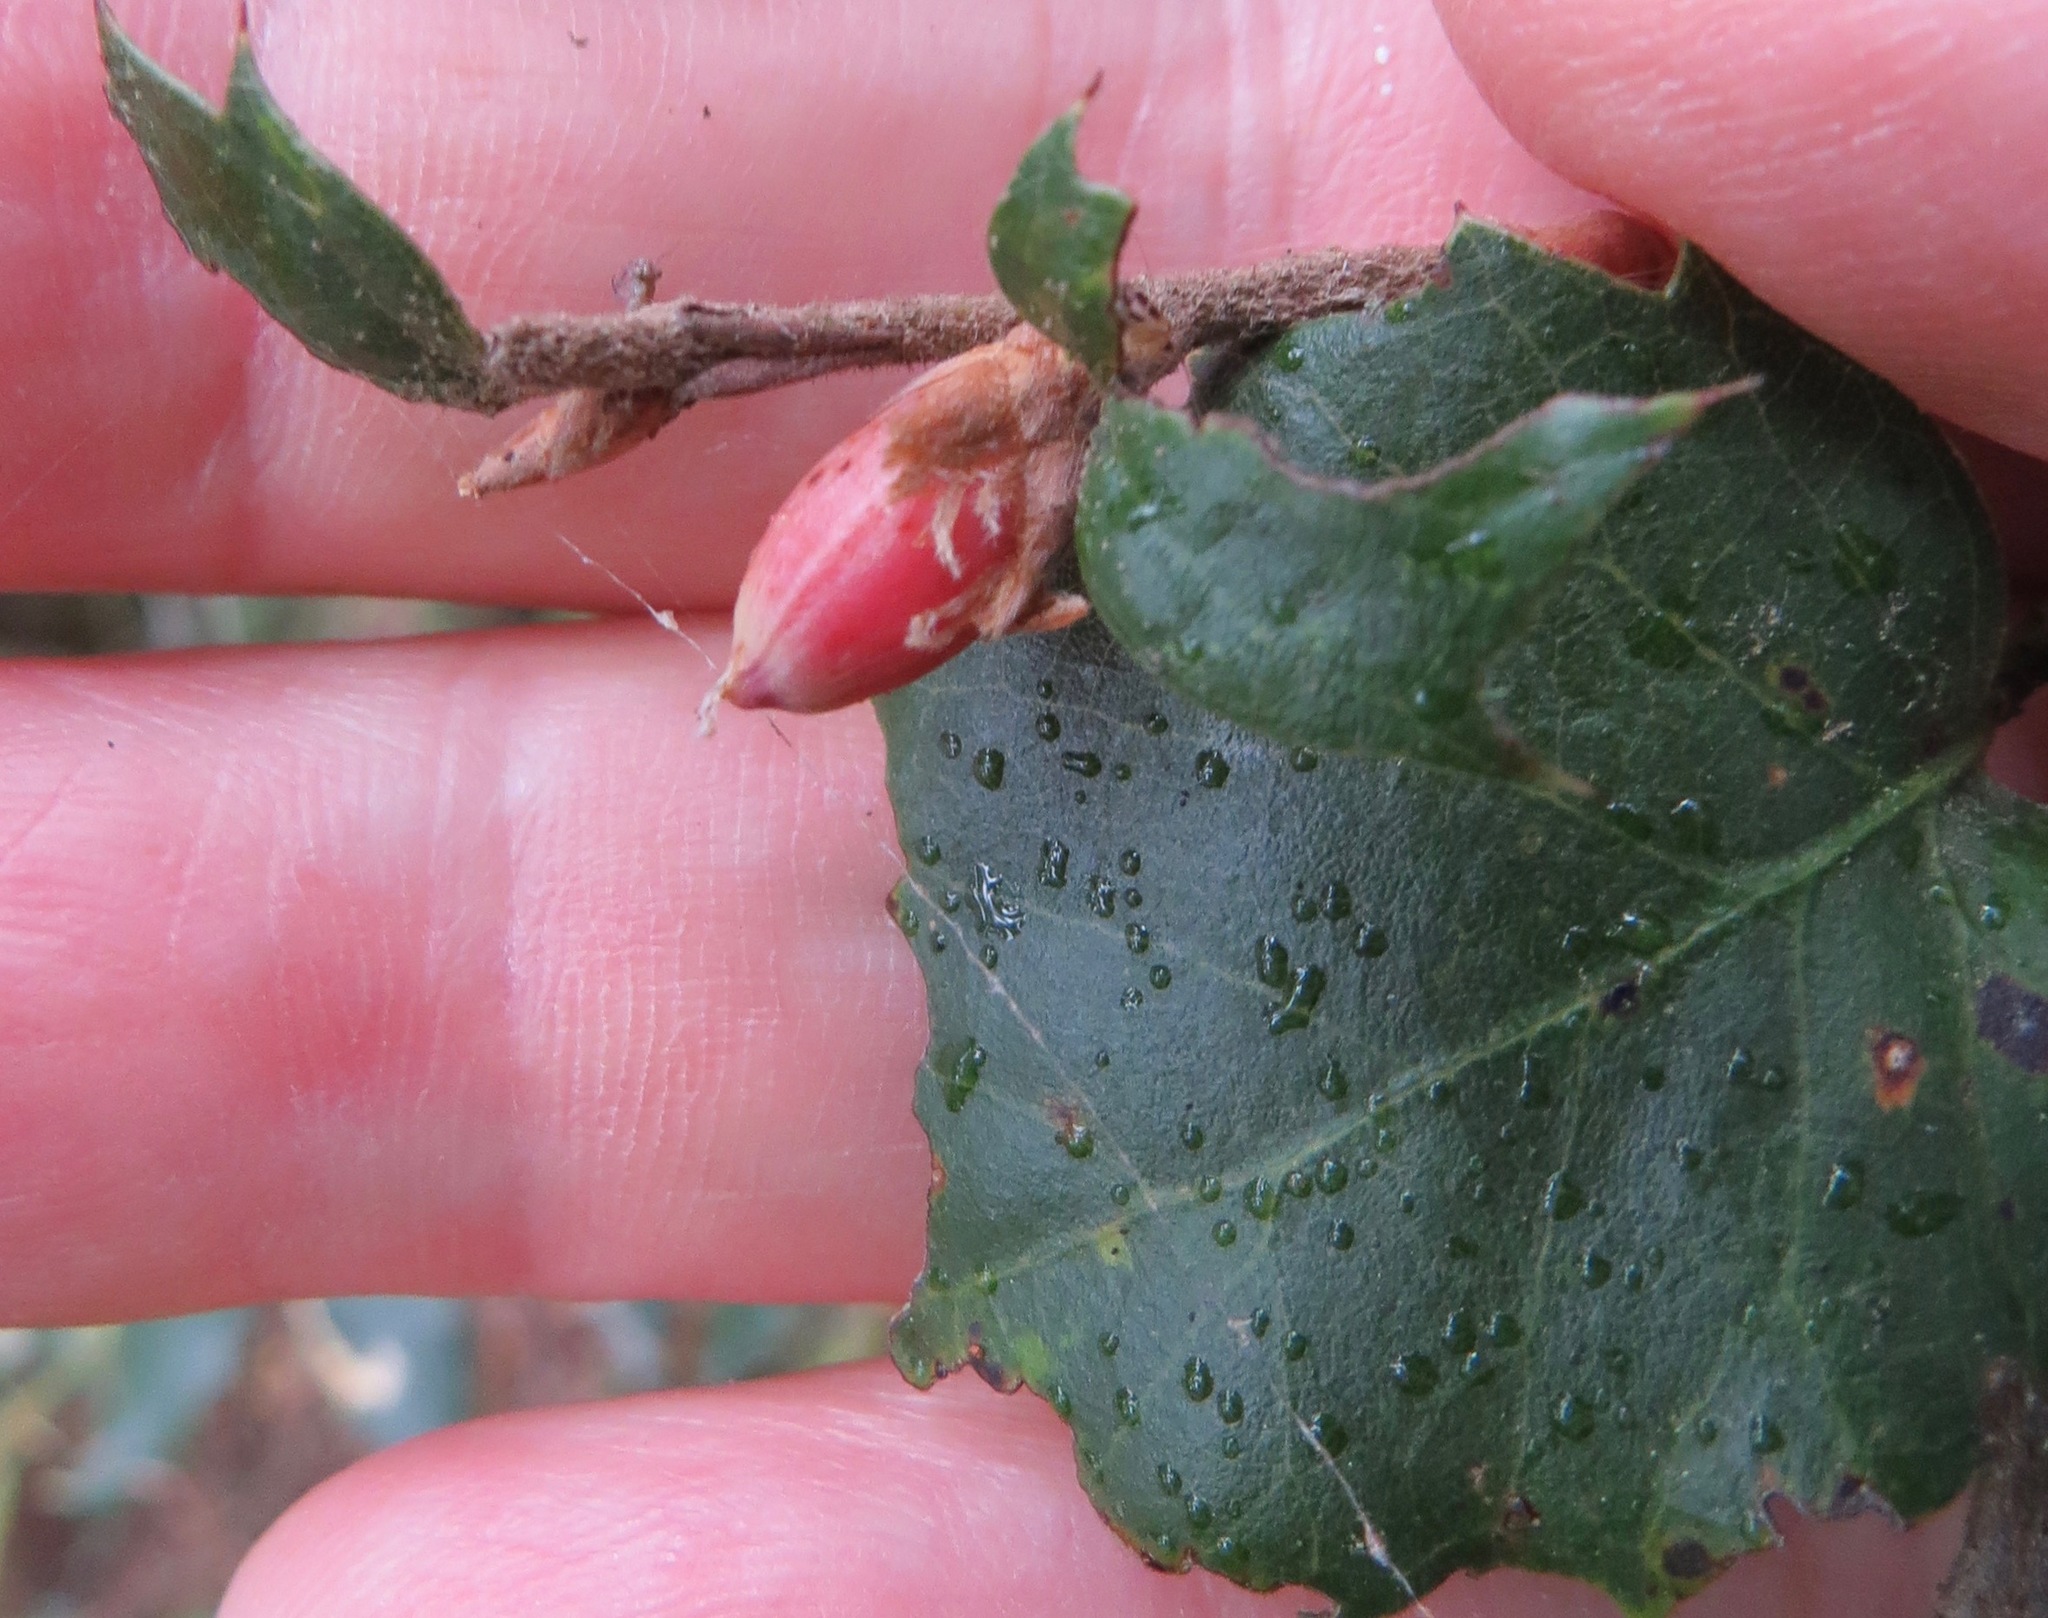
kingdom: Animalia
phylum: Arthropoda
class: Insecta
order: Hymenoptera
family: Cynipidae
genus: Andricus
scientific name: Andricus
